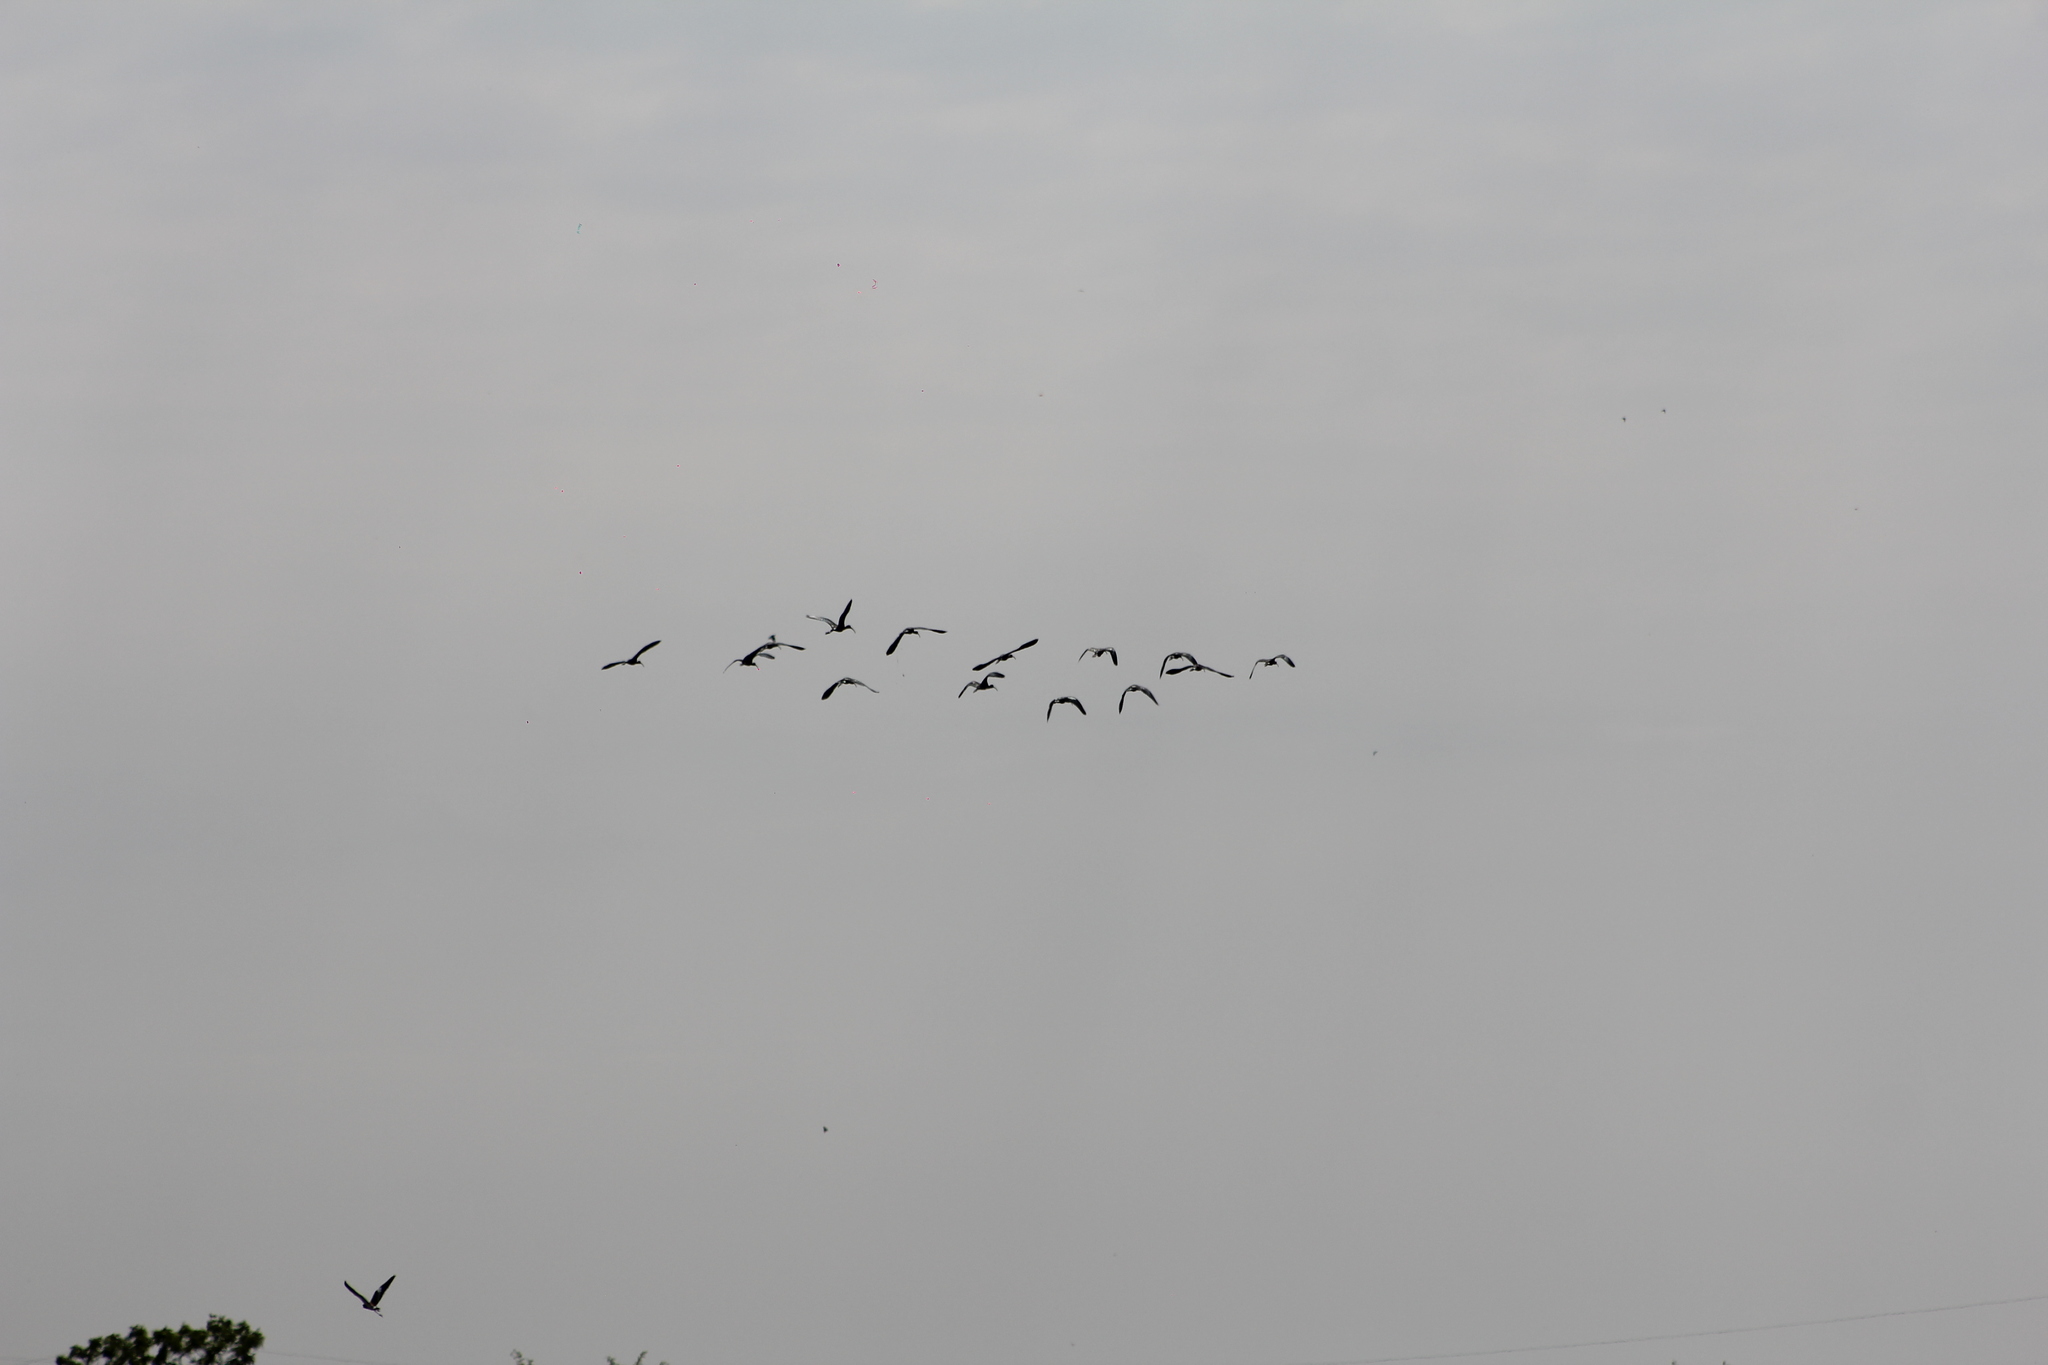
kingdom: Animalia
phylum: Chordata
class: Aves
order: Pelecaniformes
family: Threskiornithidae
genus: Plegadis
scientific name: Plegadis chihi
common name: White-faced ibis
